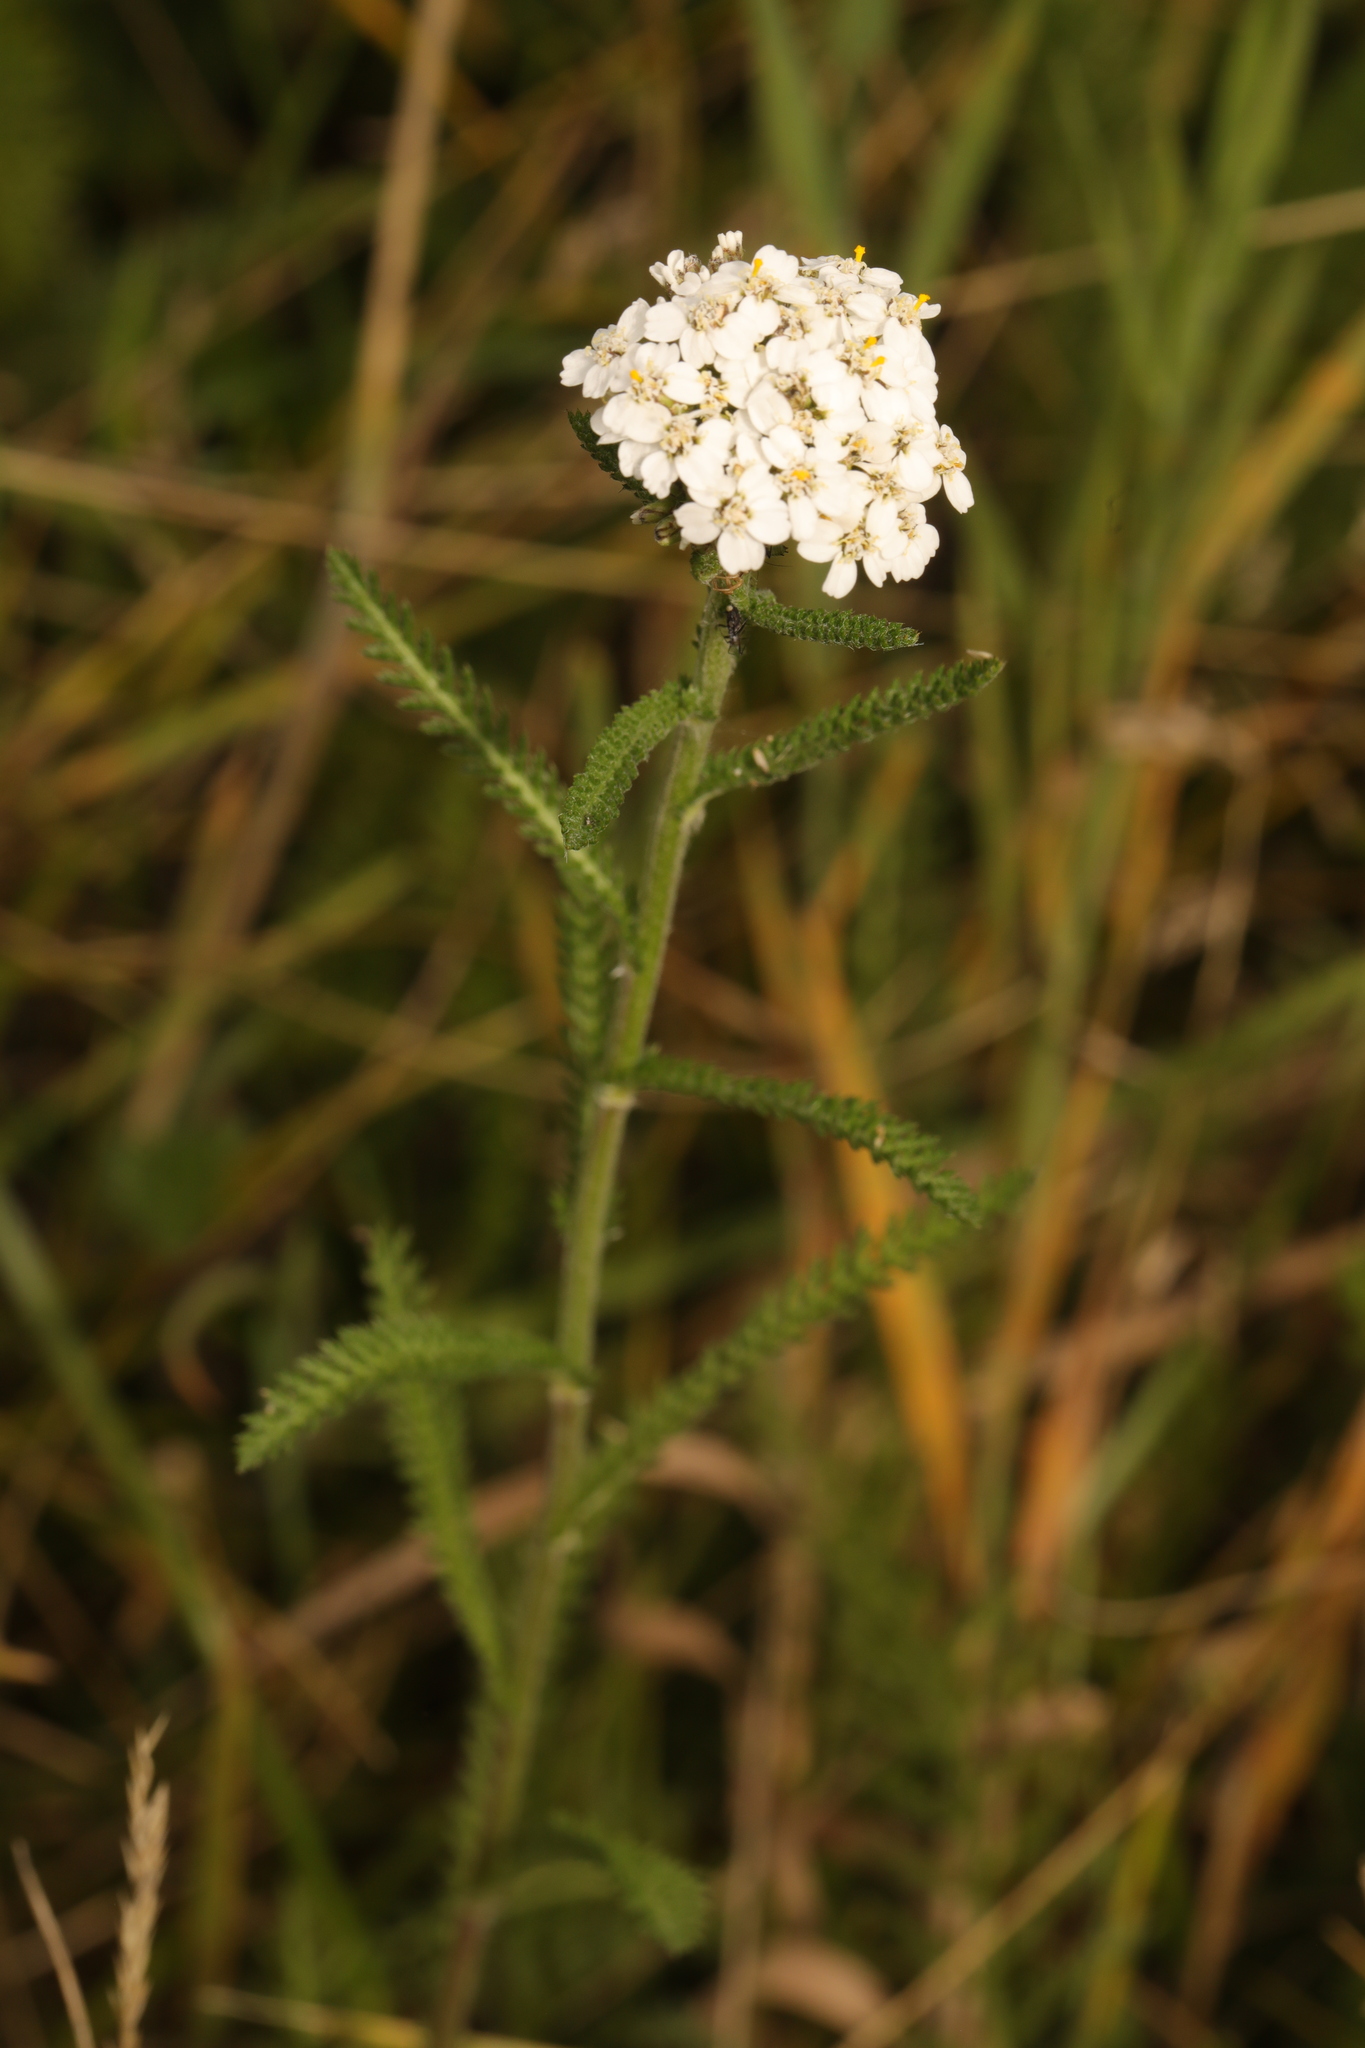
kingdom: Plantae
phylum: Tracheophyta
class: Magnoliopsida
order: Asterales
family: Asteraceae
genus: Achillea
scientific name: Achillea millefolium
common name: Yarrow
